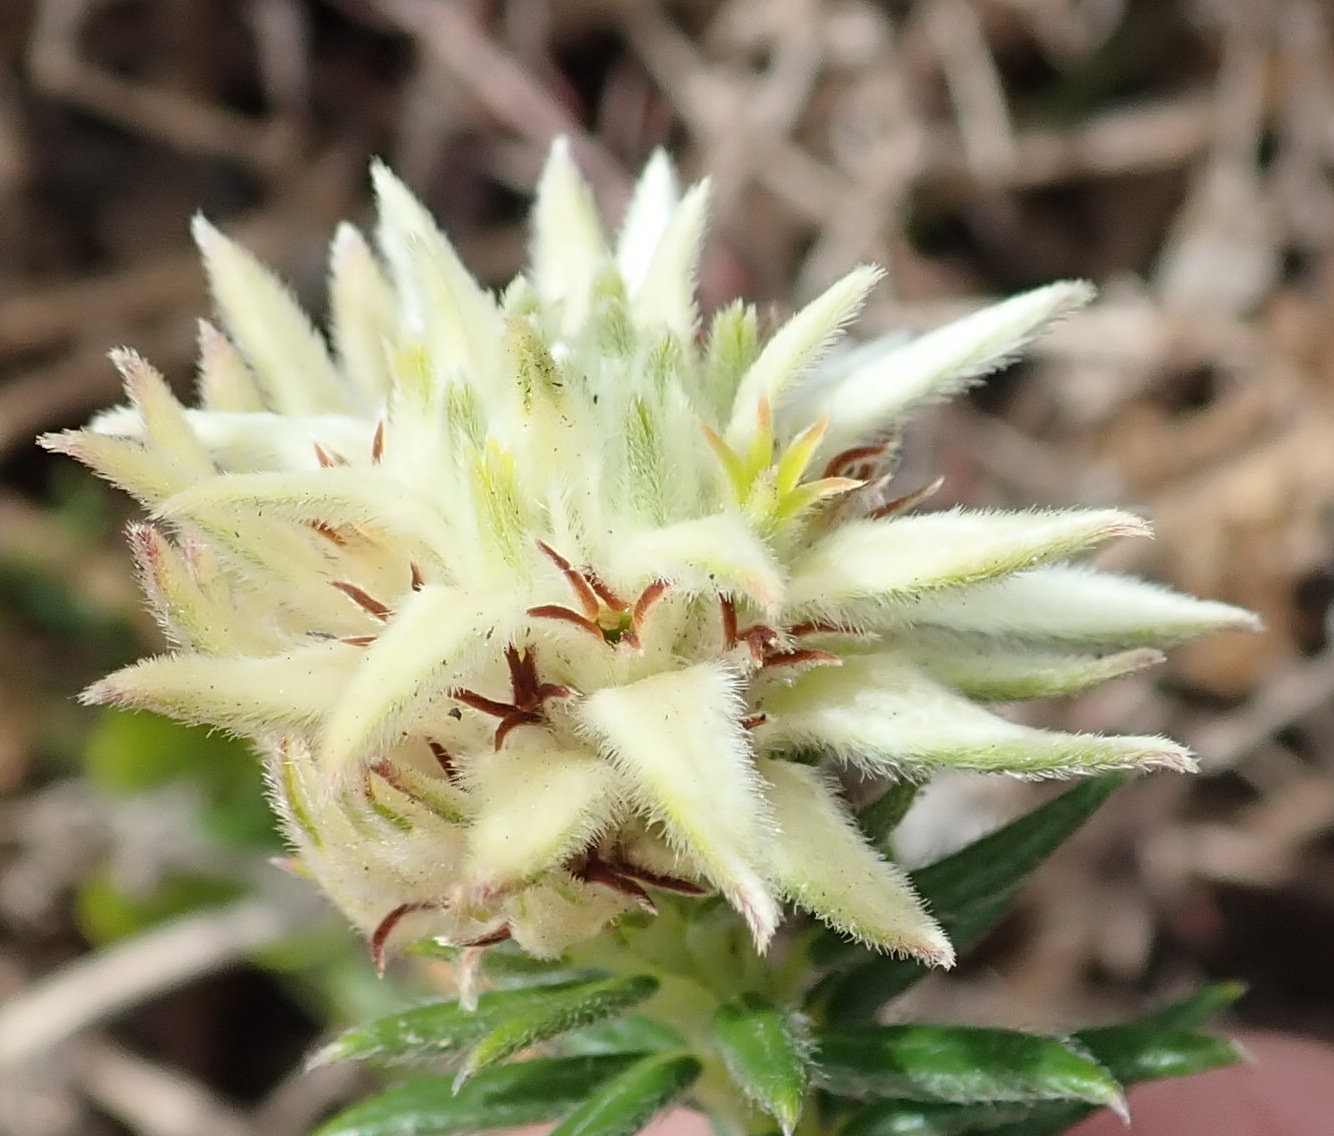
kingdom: Plantae
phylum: Tracheophyta
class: Magnoliopsida
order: Rosales
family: Rhamnaceae
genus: Phylica
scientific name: Phylica dodii
